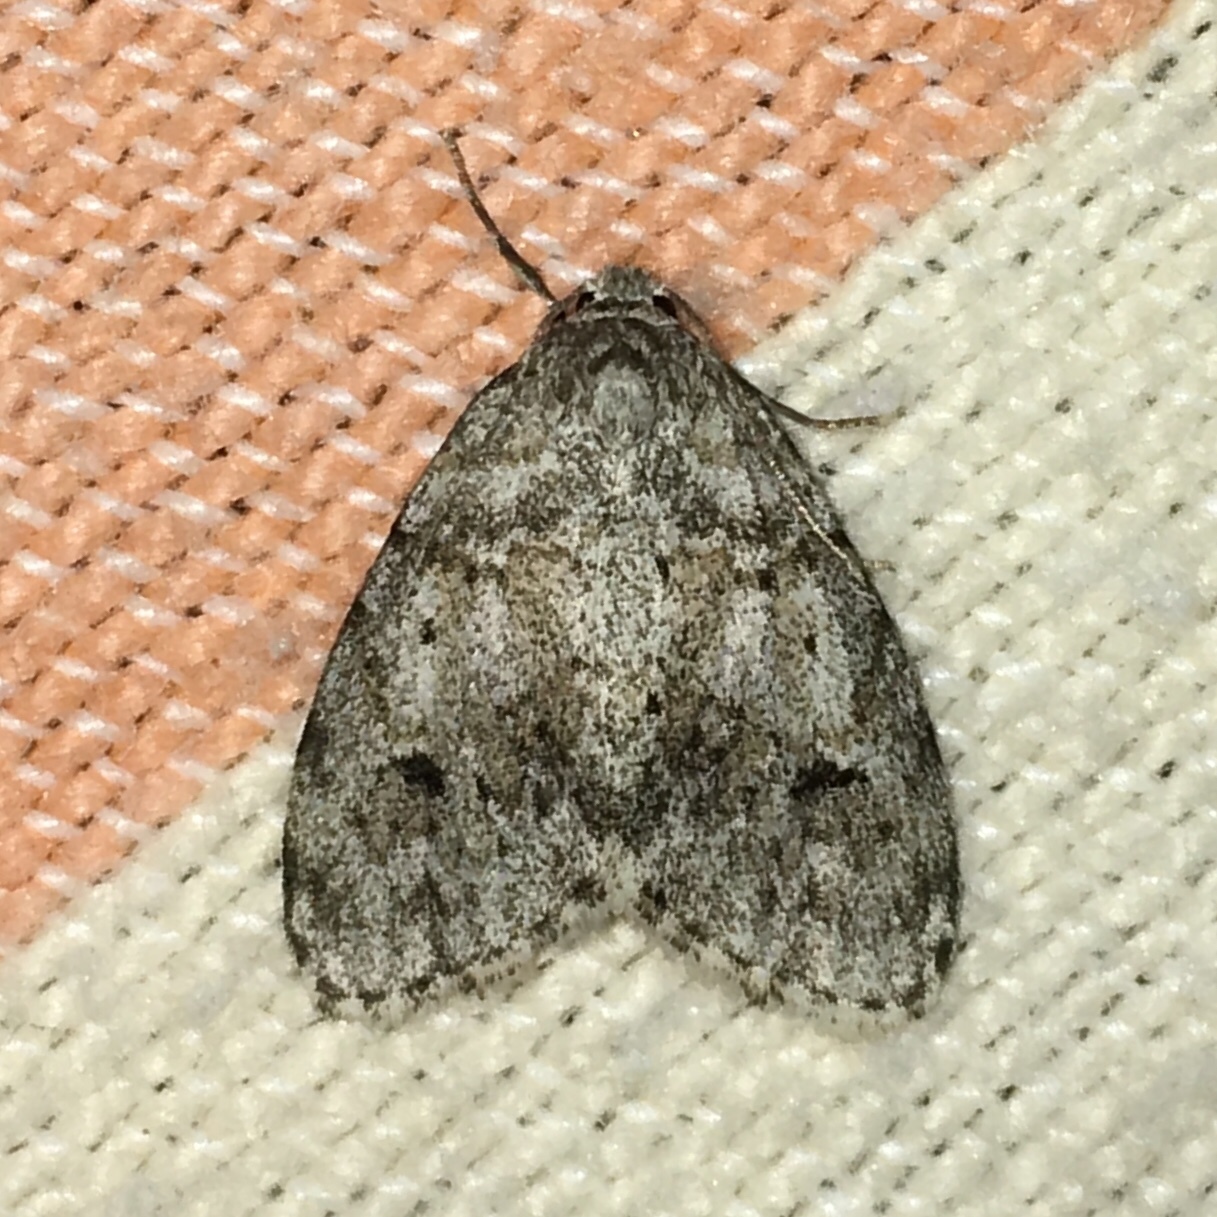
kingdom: Animalia
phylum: Arthropoda
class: Insecta
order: Lepidoptera
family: Erebidae
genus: Clemensia
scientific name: Clemensia albata
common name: Little white lichen moth
